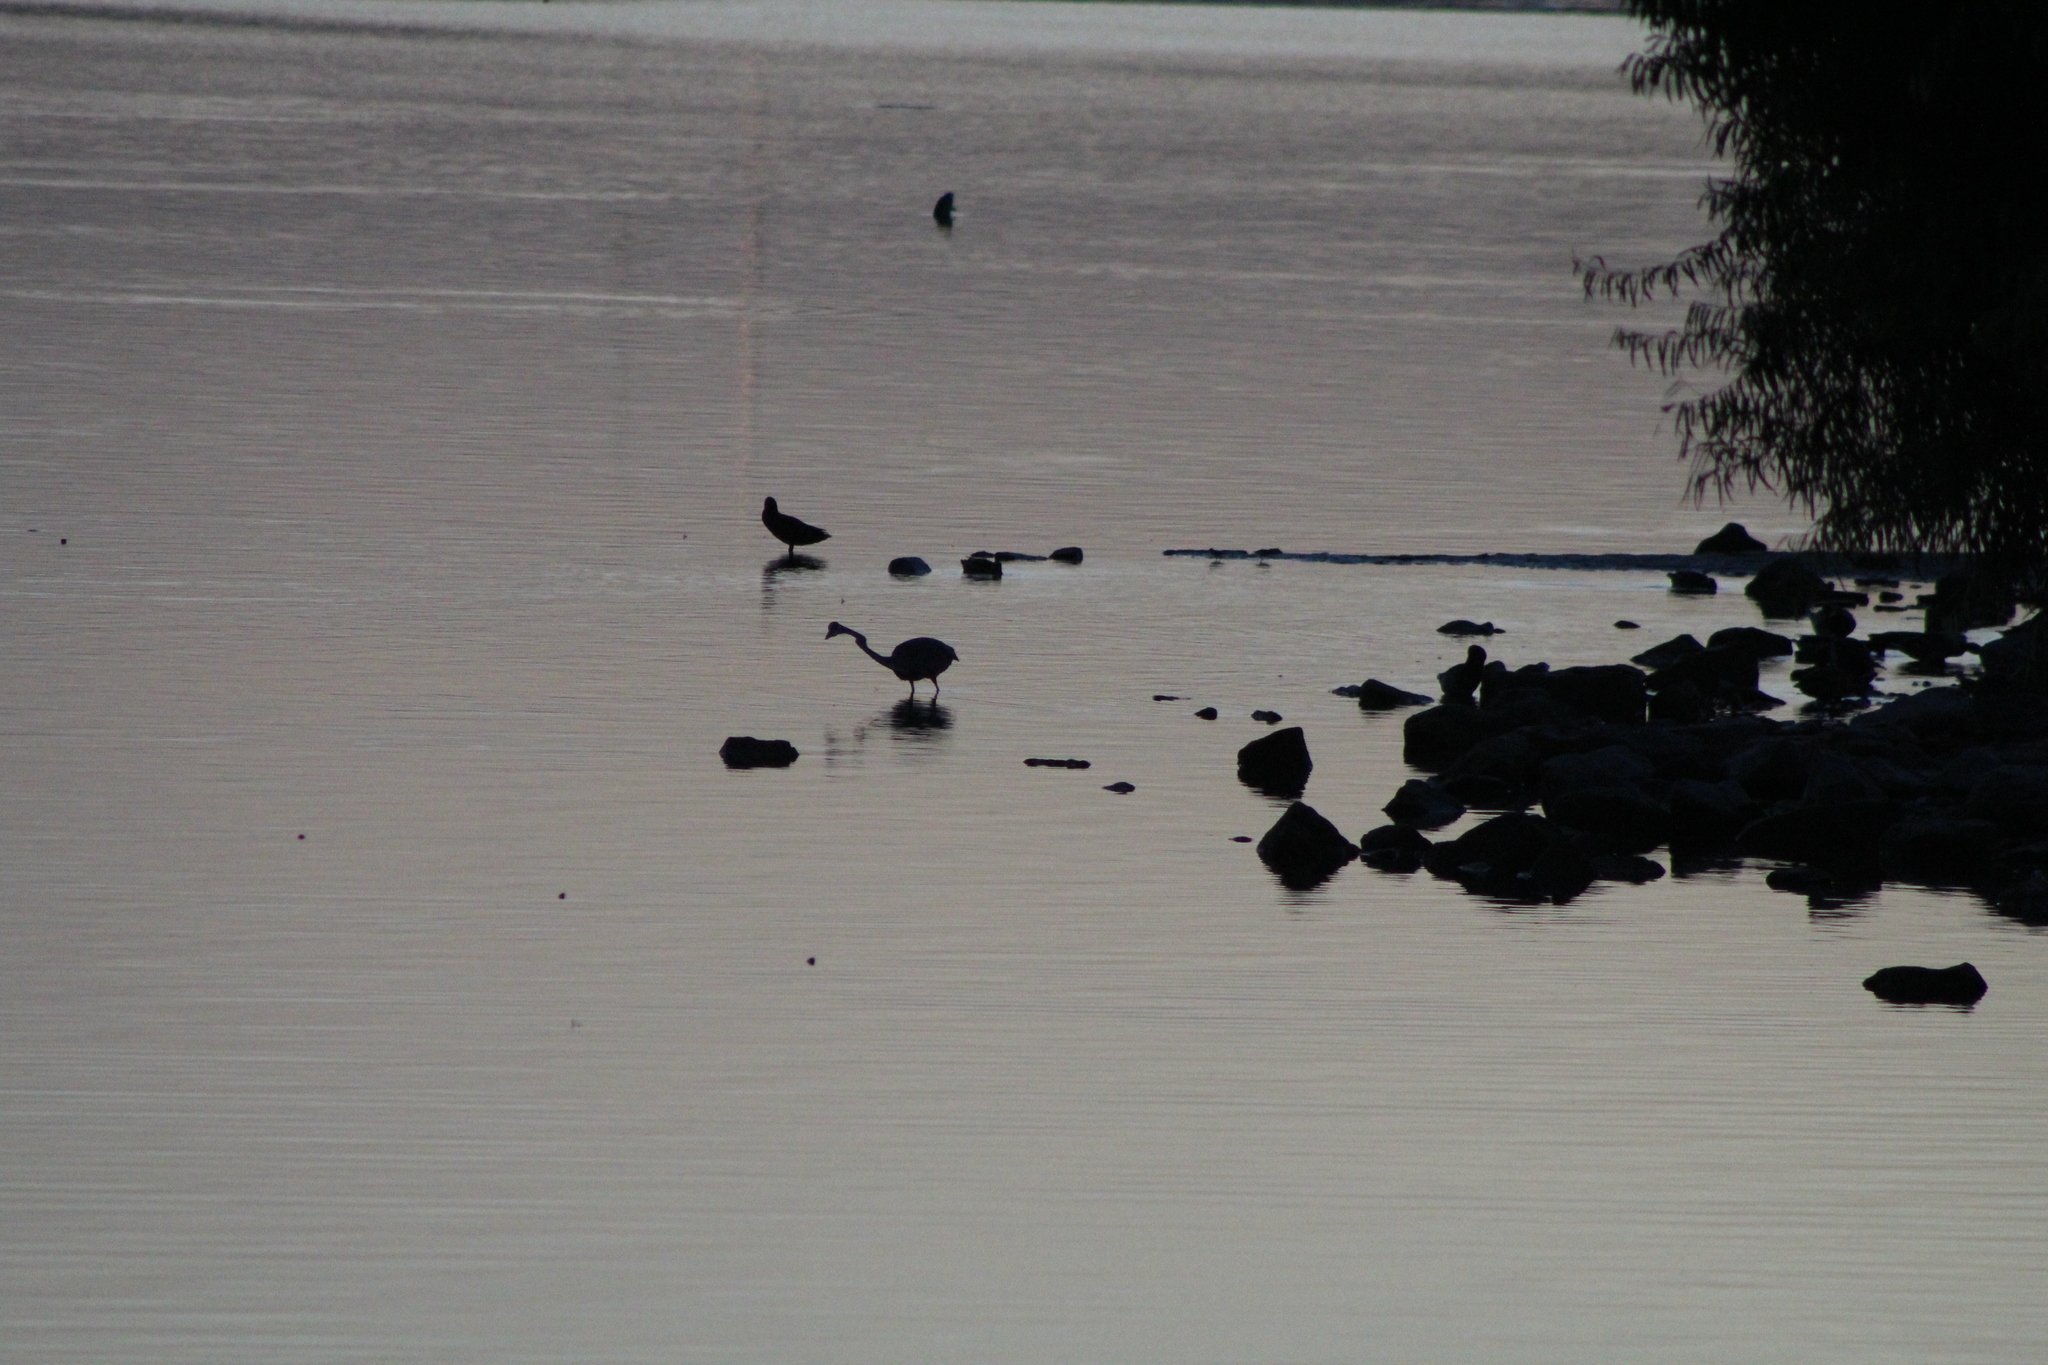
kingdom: Animalia
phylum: Chordata
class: Aves
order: Pelecaniformes
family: Ardeidae
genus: Ardea
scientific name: Ardea herodias
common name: Great blue heron
